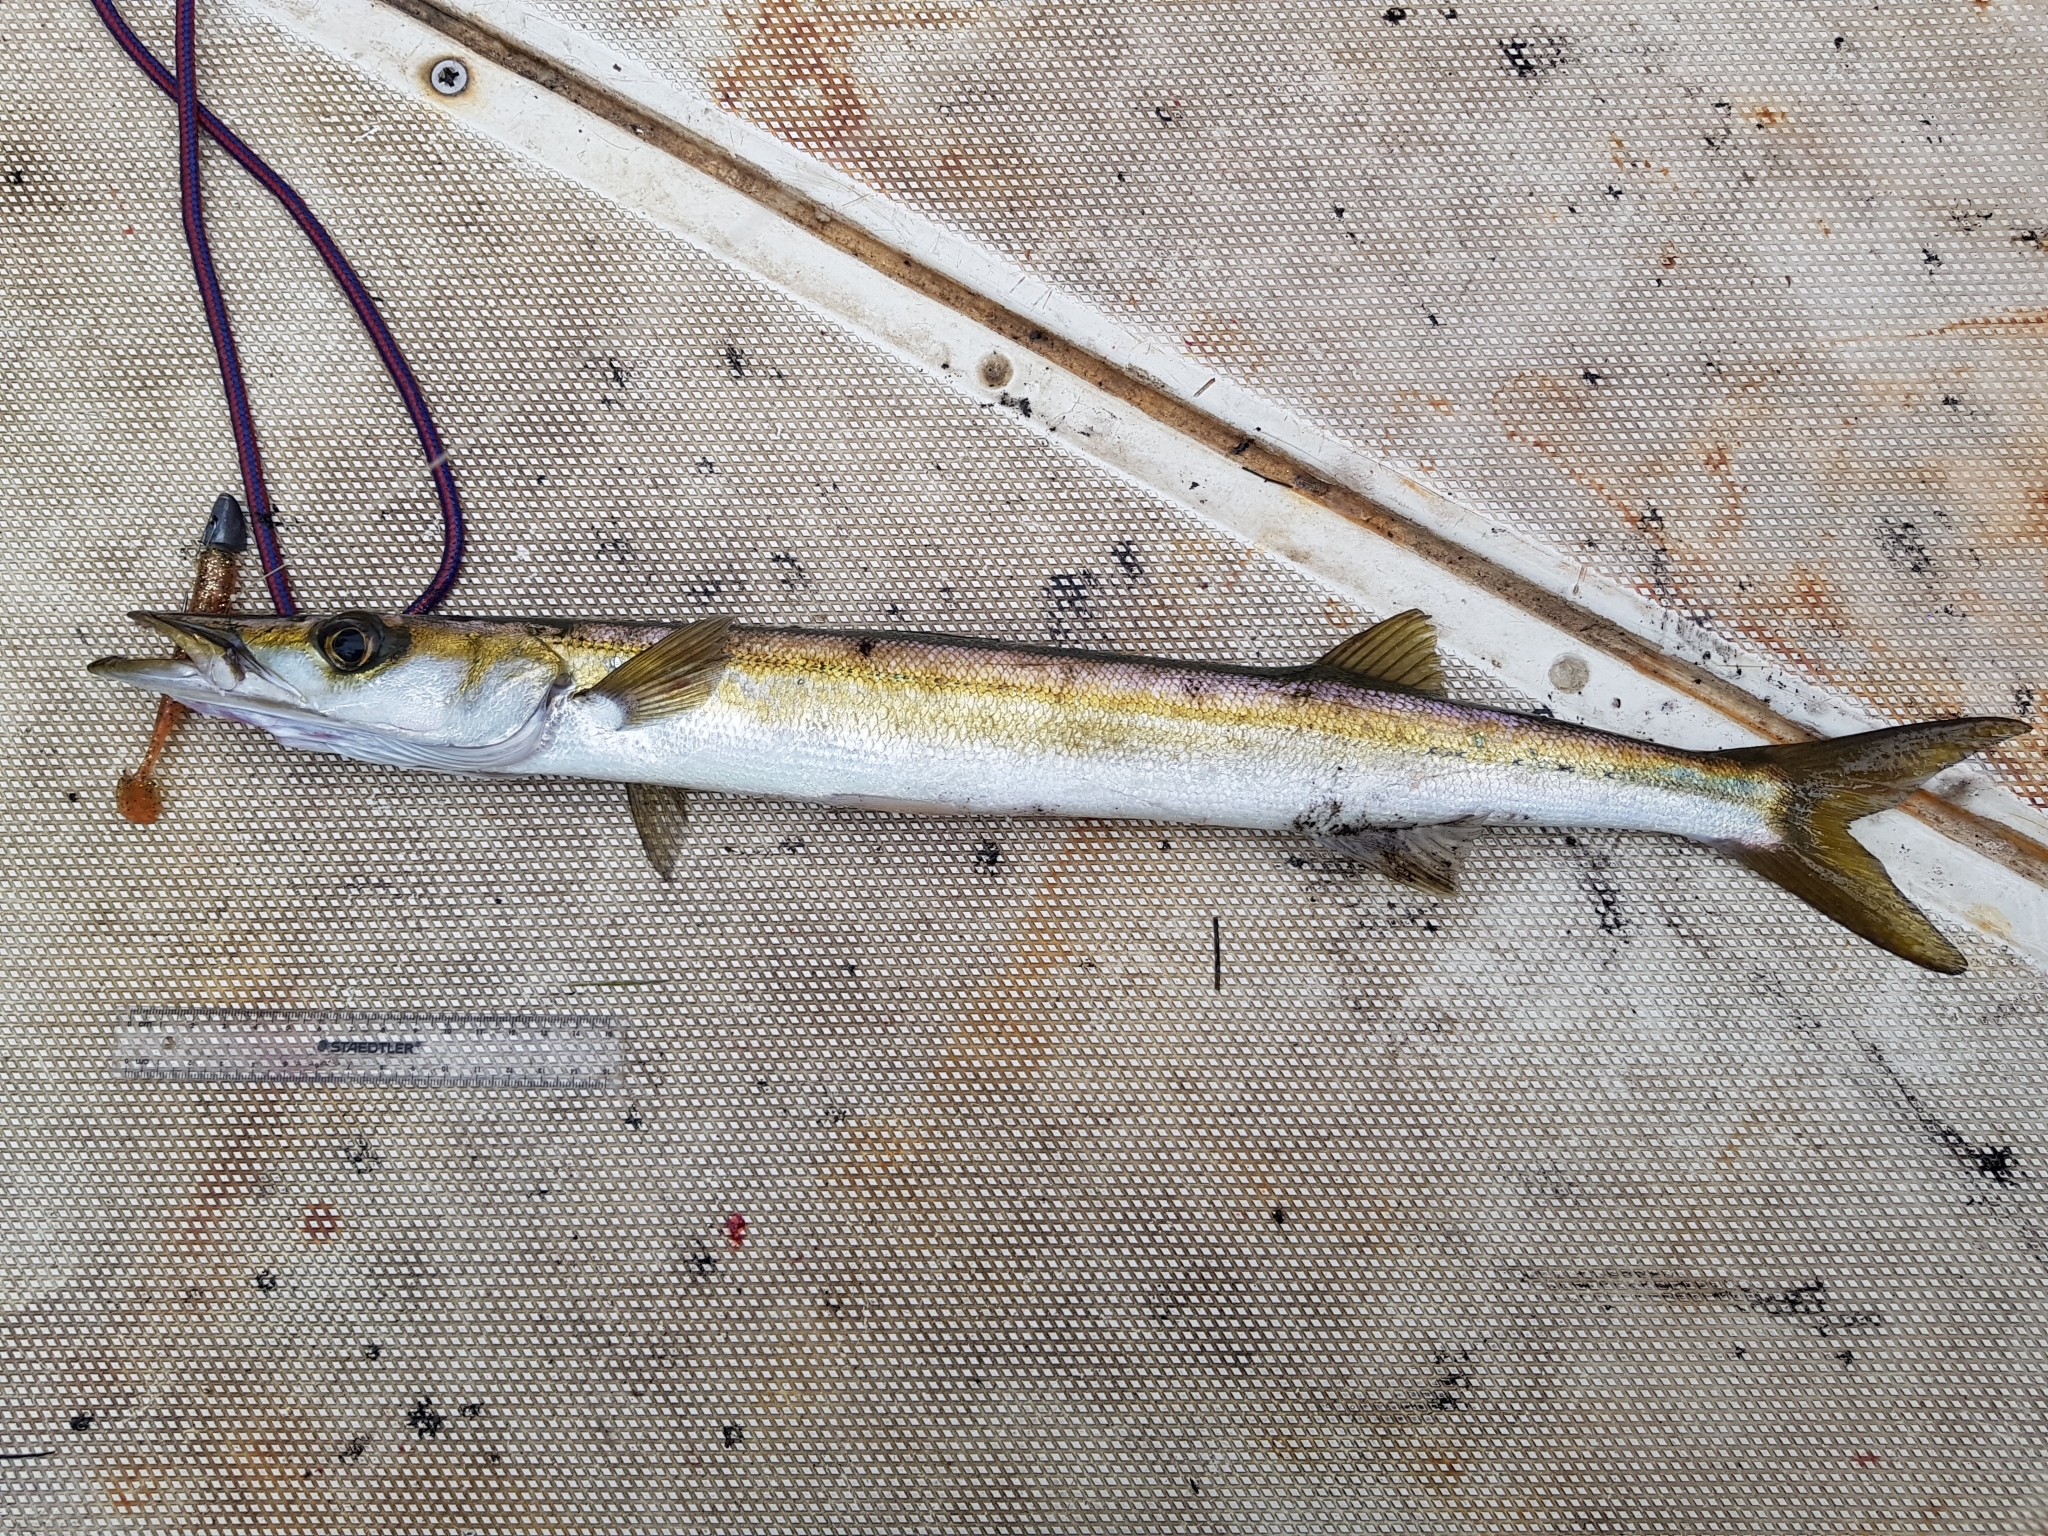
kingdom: Animalia
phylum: Chordata
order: Perciformes
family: Sphyraenidae
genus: Sphyraena
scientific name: Sphyraena novaehollandiae
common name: Arrow barracuda
